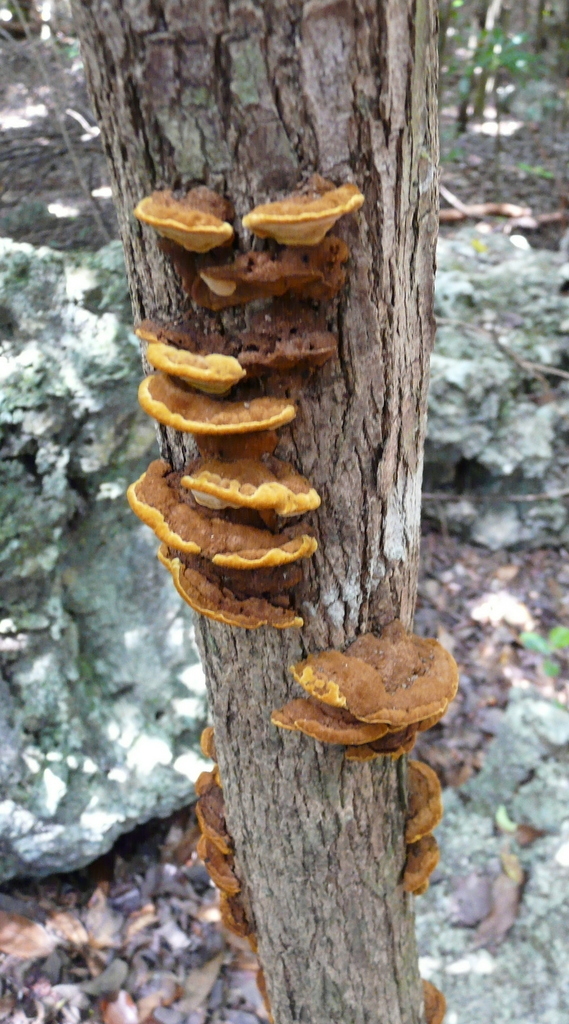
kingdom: Fungi
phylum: Basidiomycota
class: Agaricomycetes
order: Hymenochaetales
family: Hymenochaetaceae
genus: Phellinus
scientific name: Phellinus gilvus
